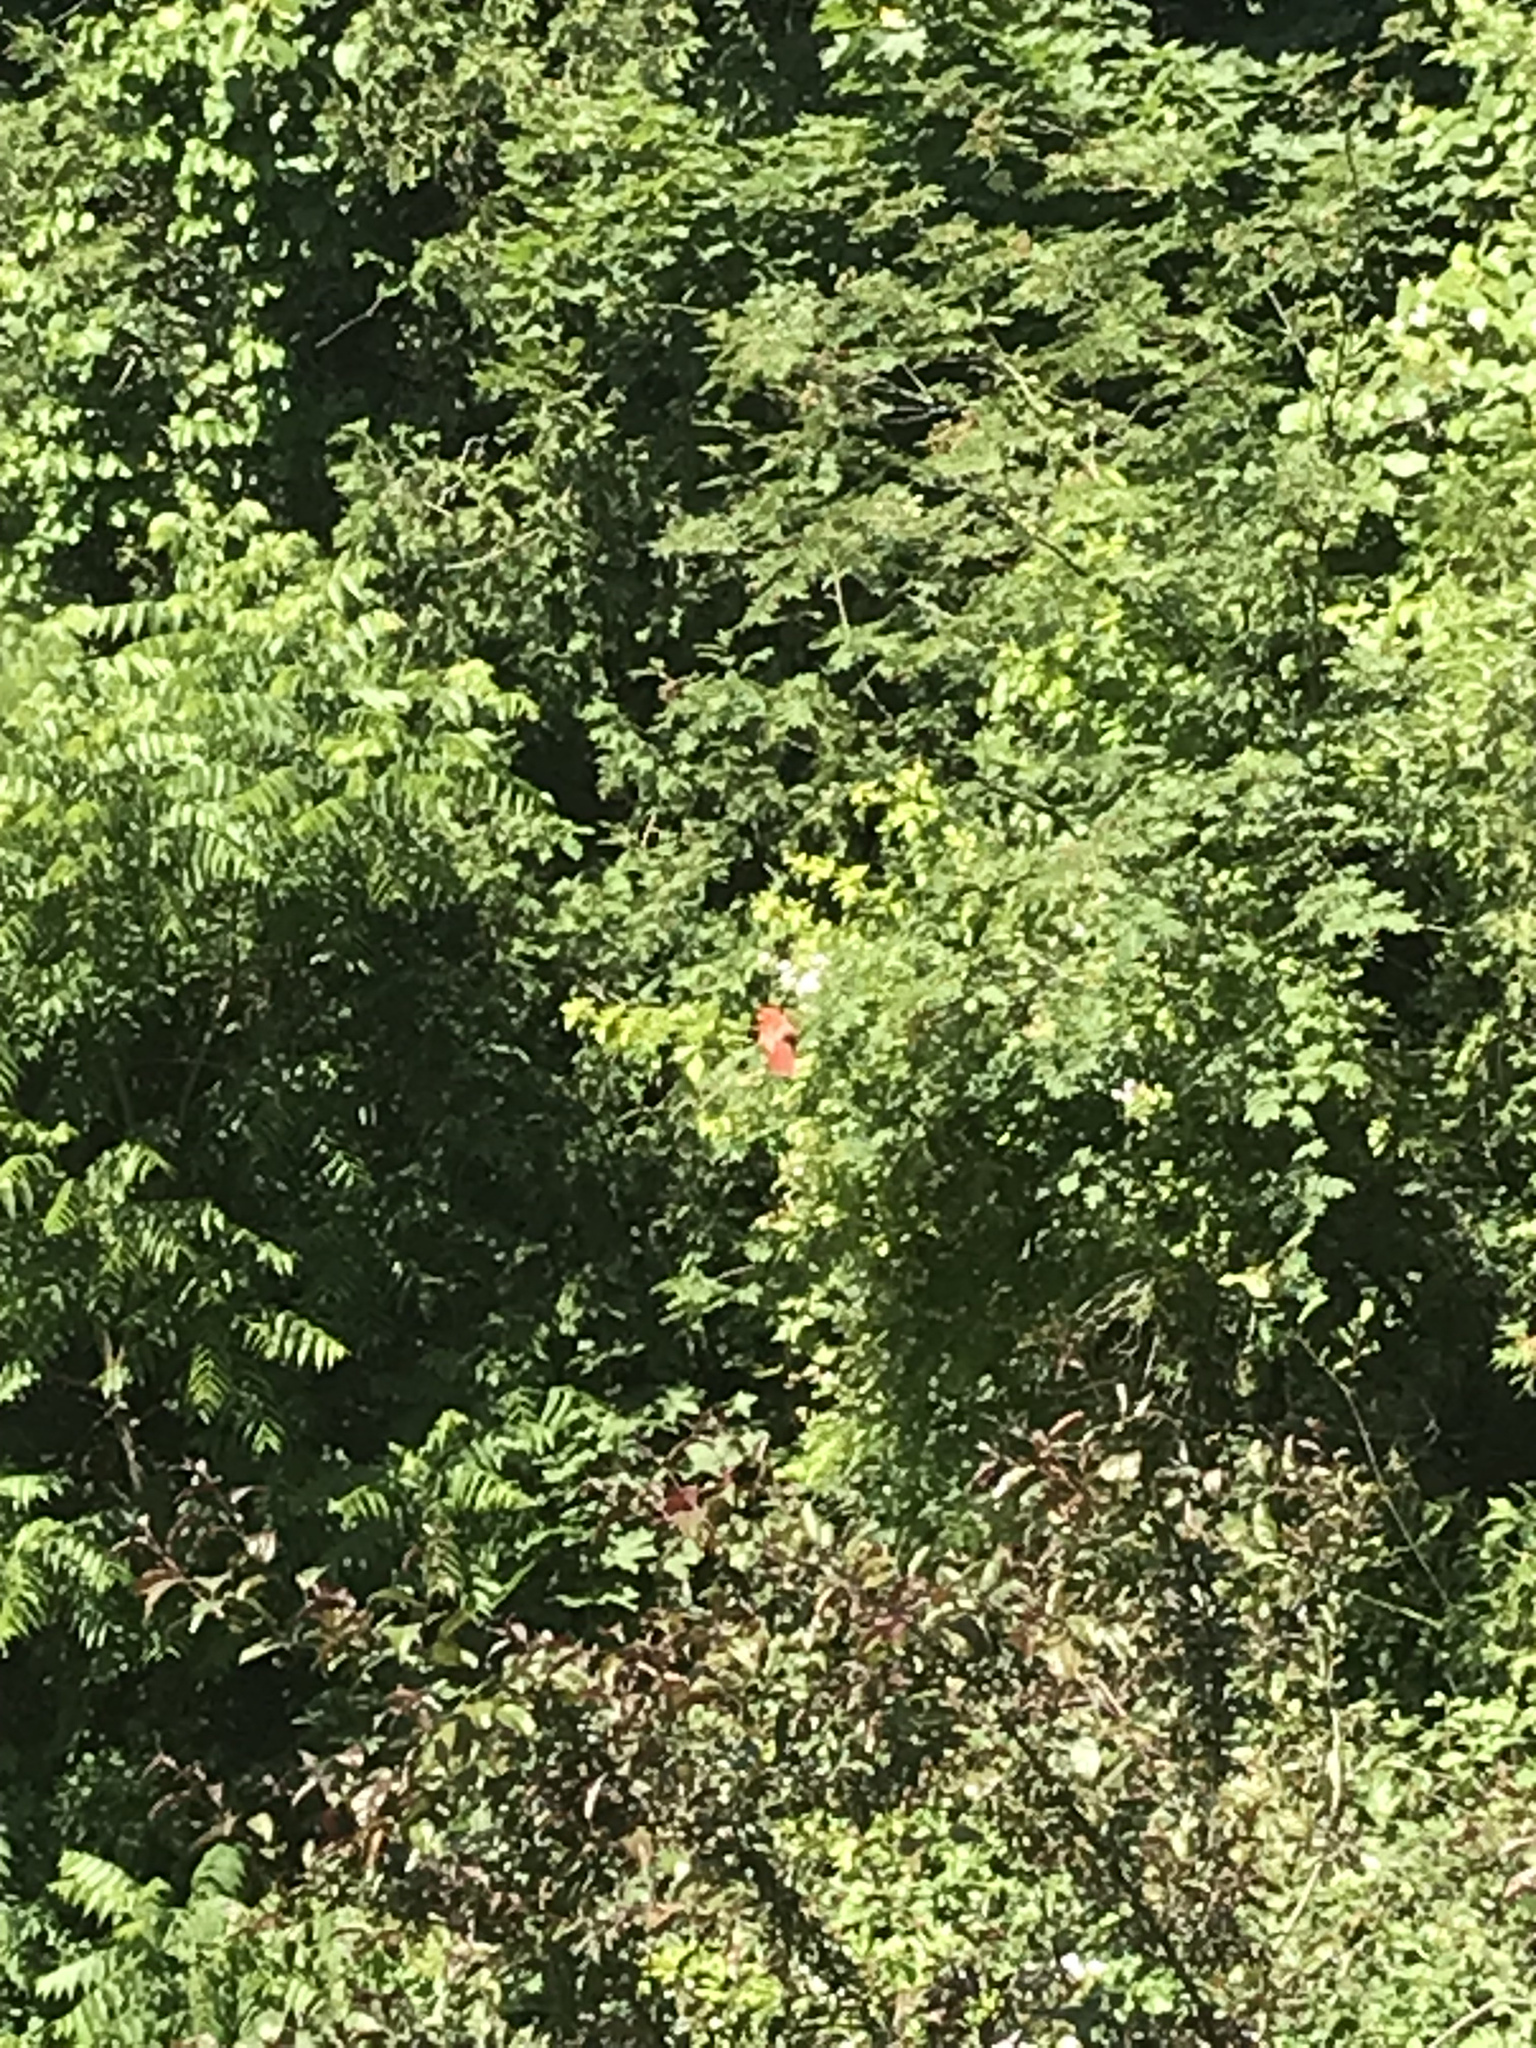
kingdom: Animalia
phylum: Chordata
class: Aves
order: Passeriformes
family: Cardinalidae
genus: Cardinalis
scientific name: Cardinalis cardinalis
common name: Northern cardinal
